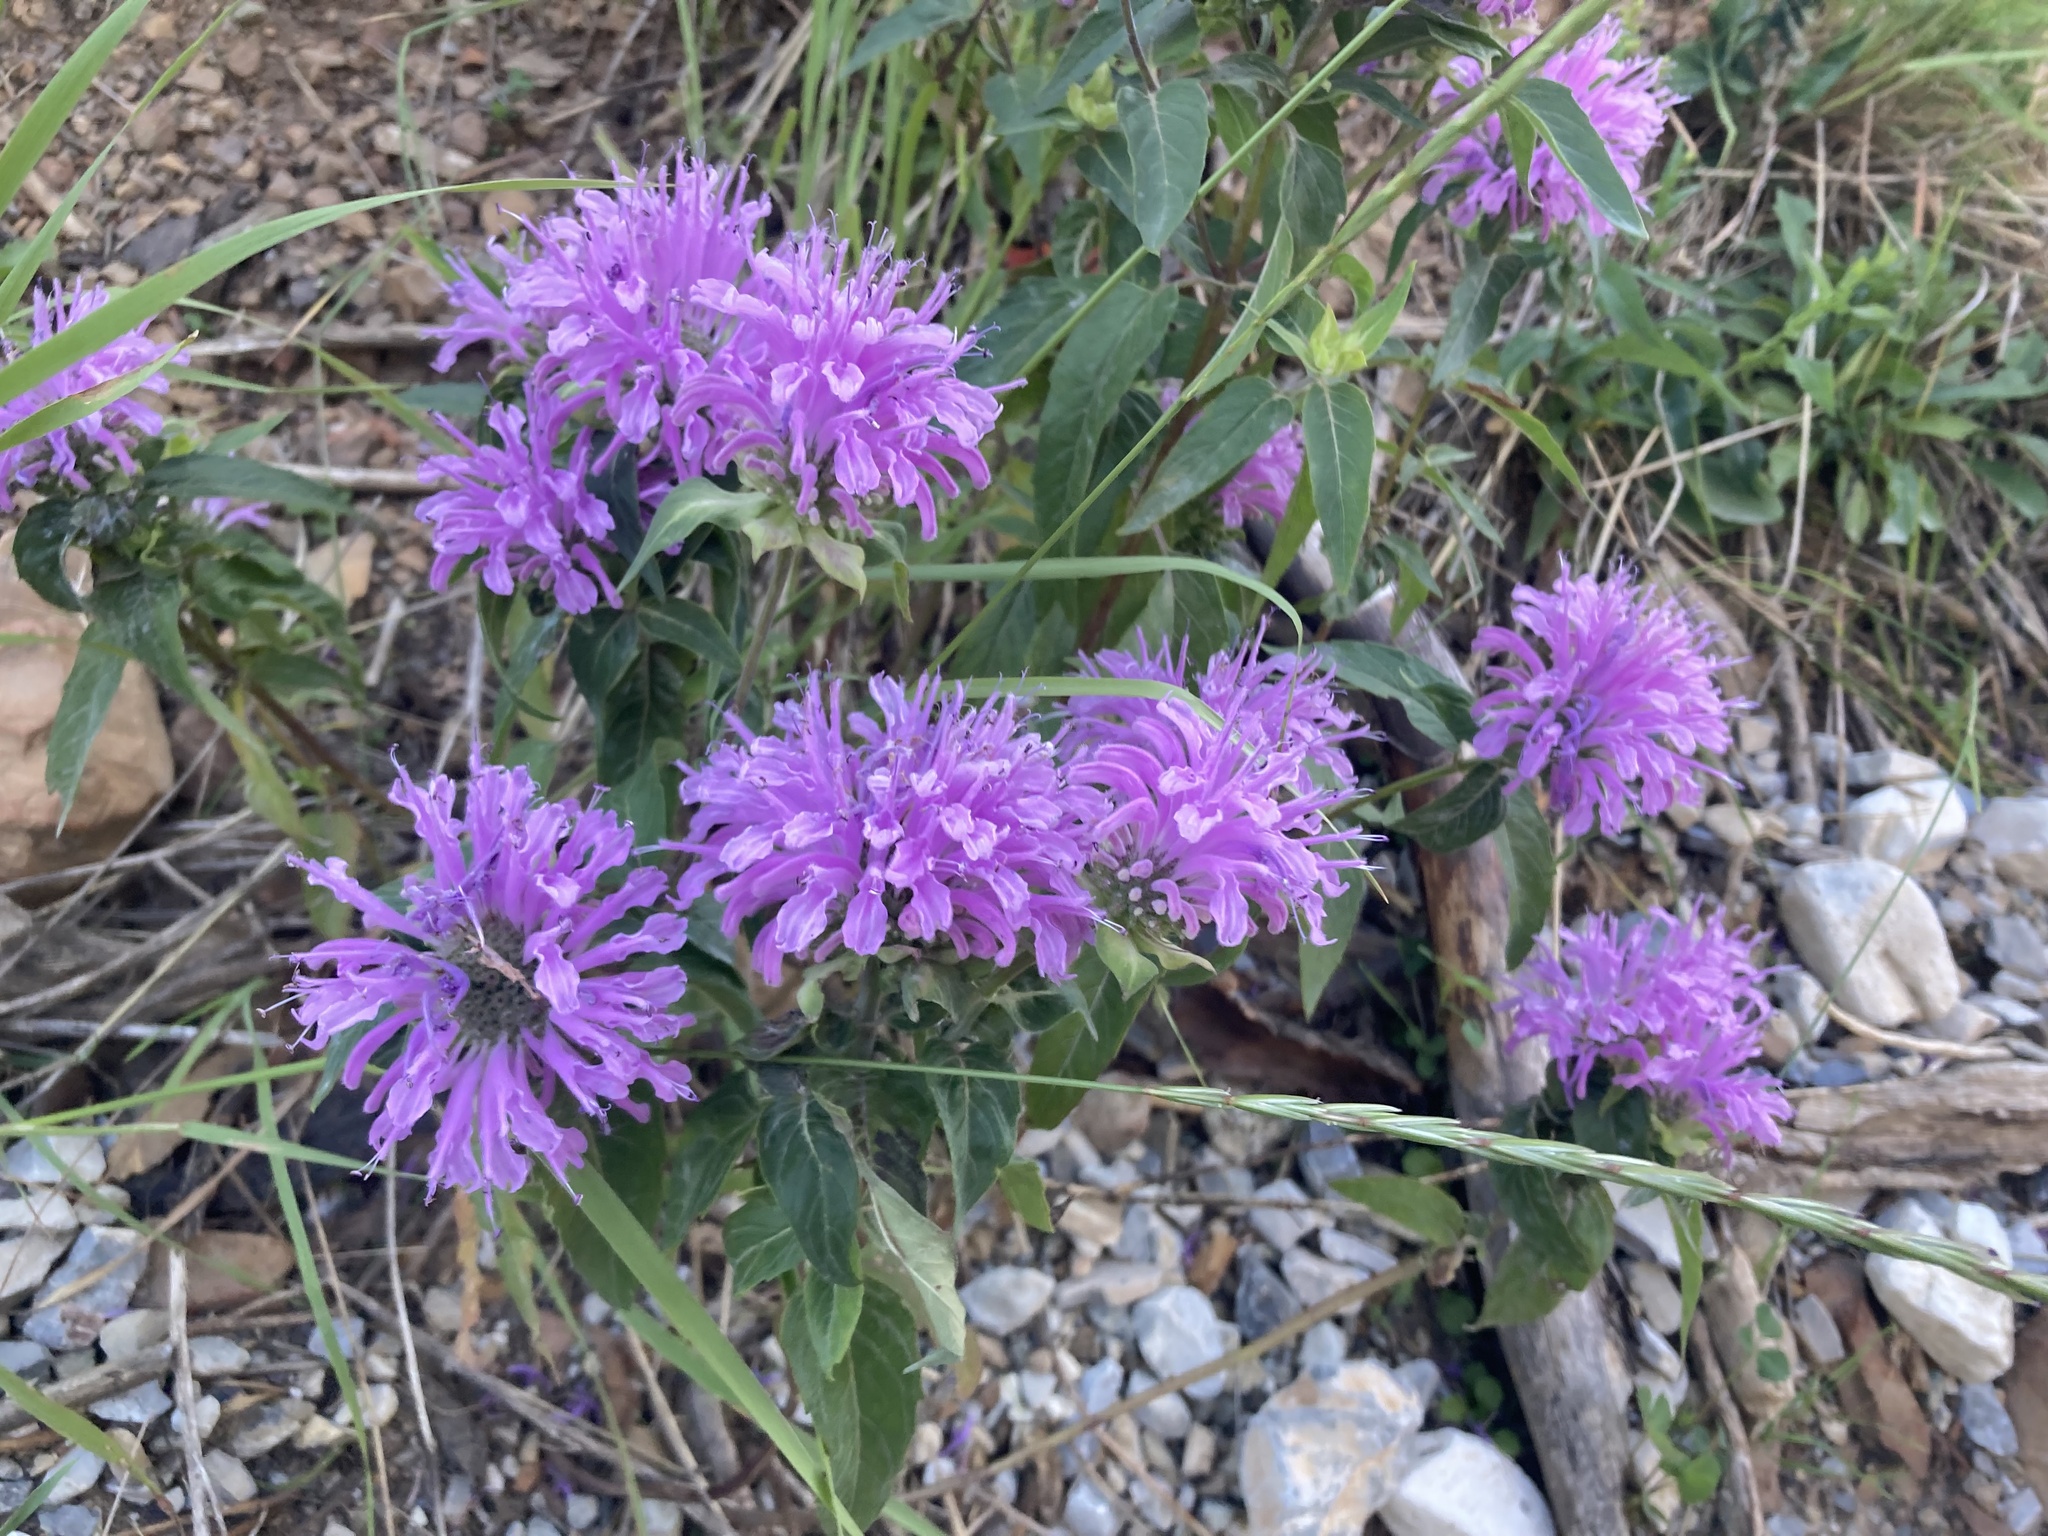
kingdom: Plantae
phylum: Tracheophyta
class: Magnoliopsida
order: Lamiales
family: Lamiaceae
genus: Monarda
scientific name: Monarda fistulosa
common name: Purple beebalm
